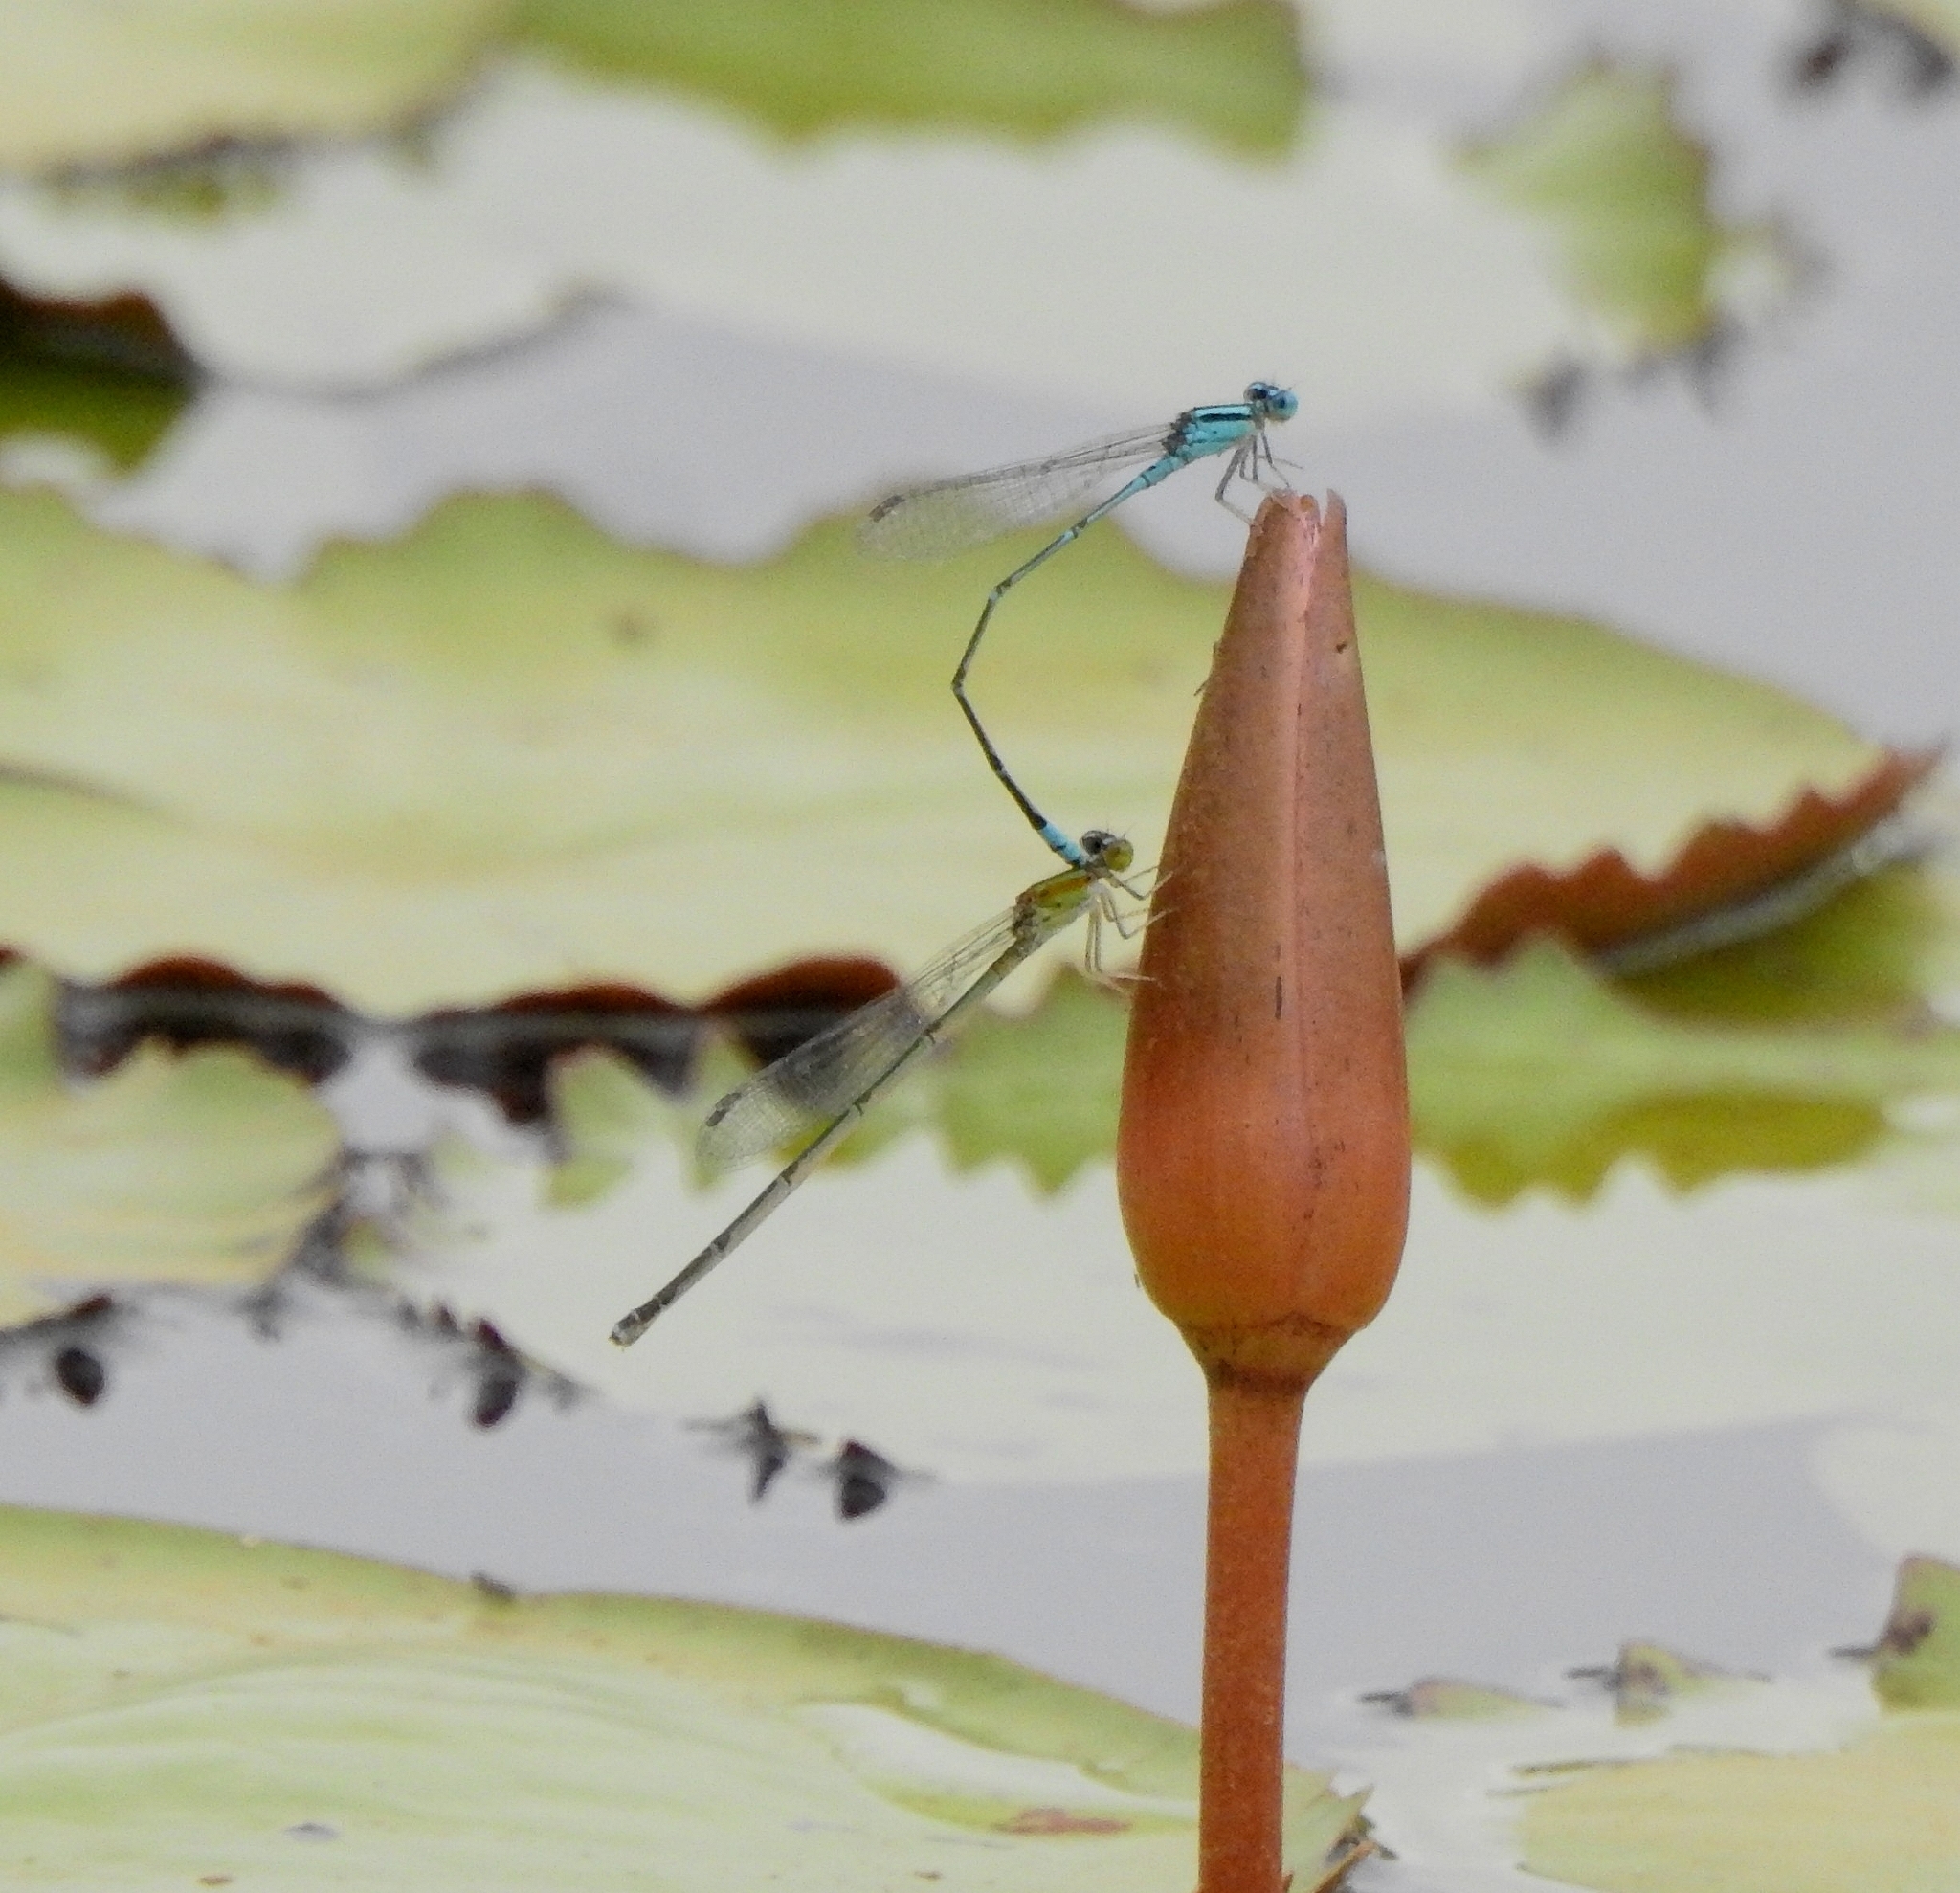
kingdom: Animalia
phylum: Arthropoda
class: Insecta
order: Odonata
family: Coenagrionidae
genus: Pseudagrion
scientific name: Pseudagrion microcephalum
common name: Blue riverdamsel
